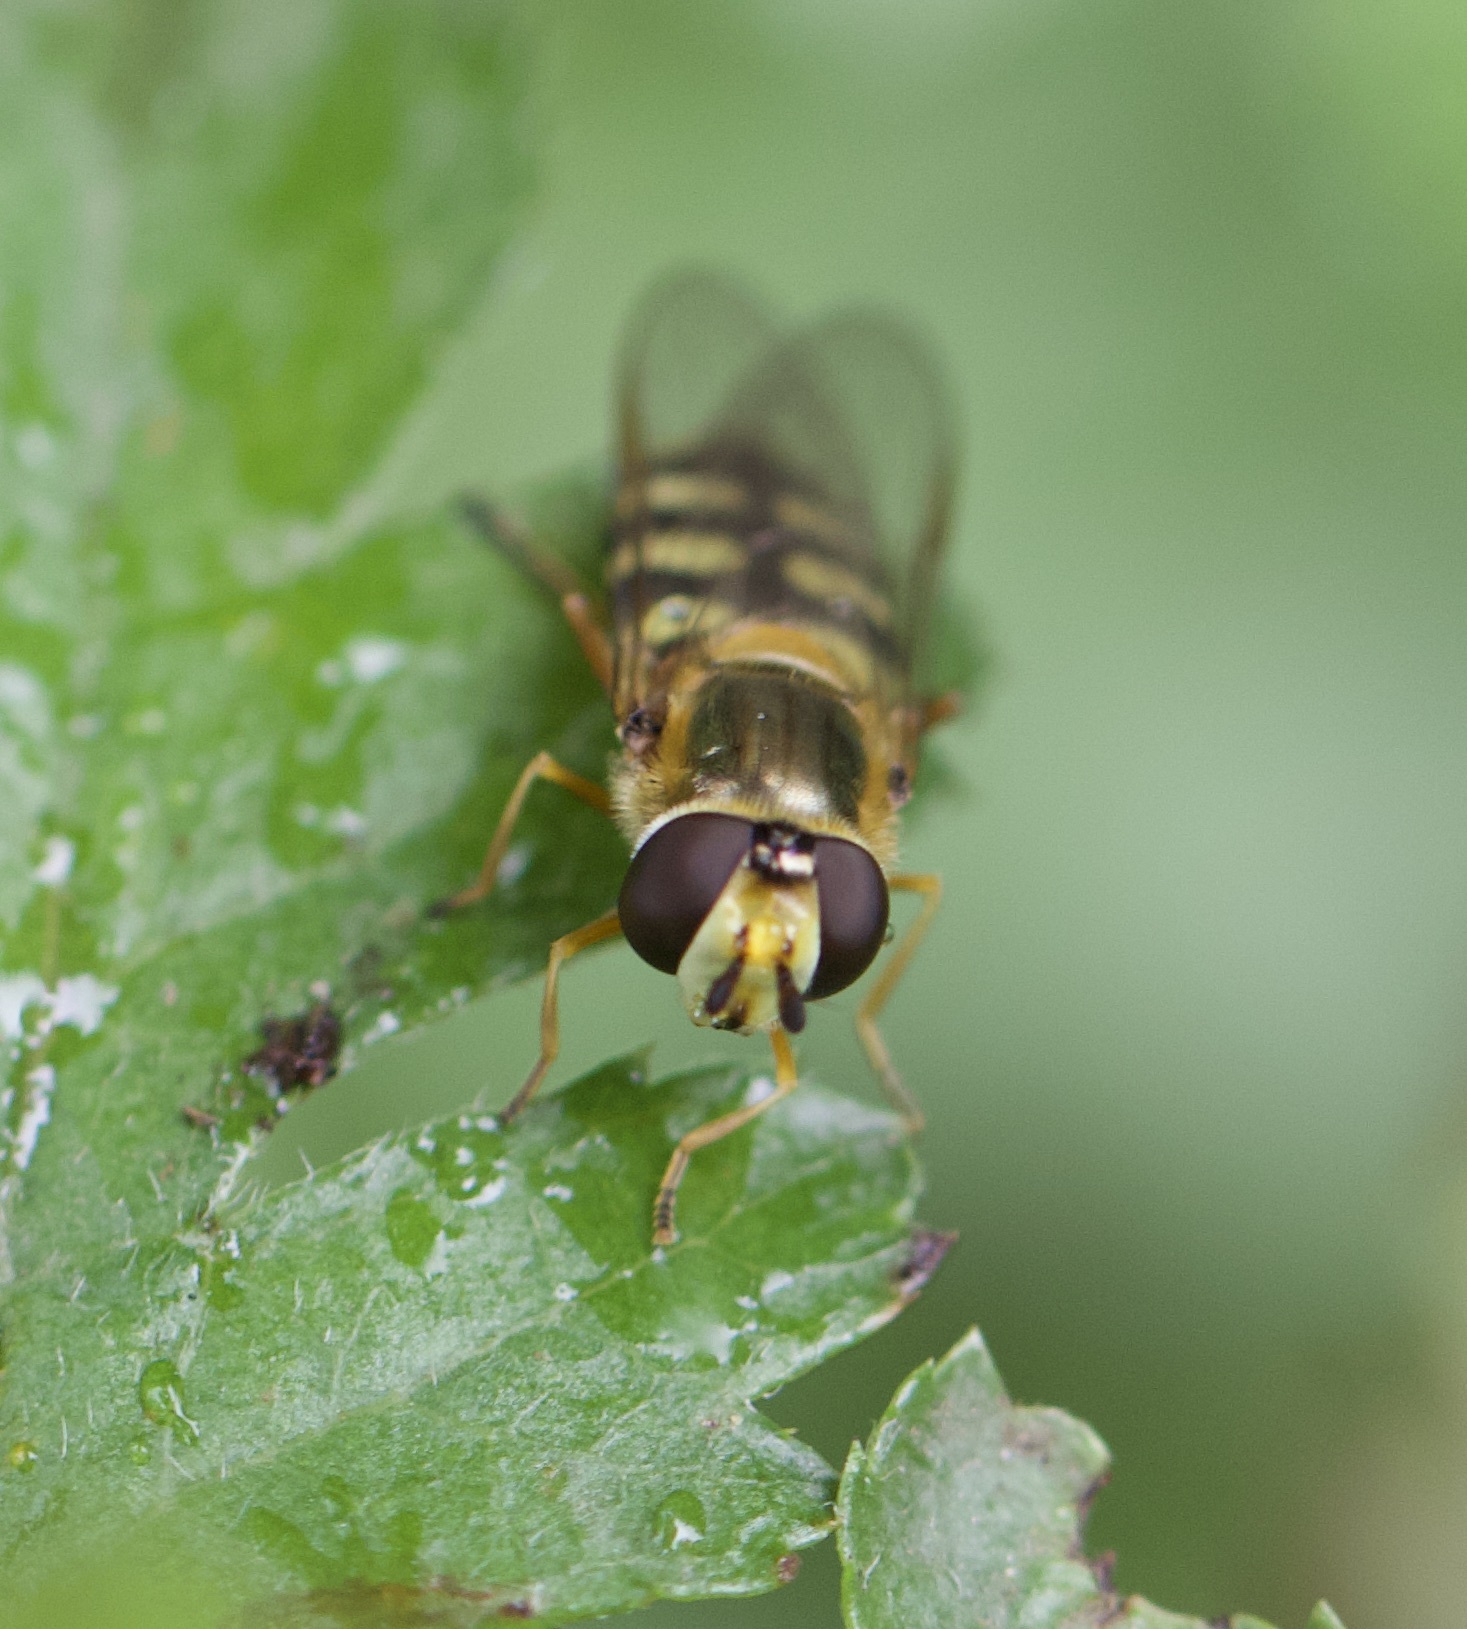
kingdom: Animalia
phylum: Arthropoda
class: Insecta
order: Diptera
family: Syrphidae
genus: Eupeodes
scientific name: Eupeodes corollae
